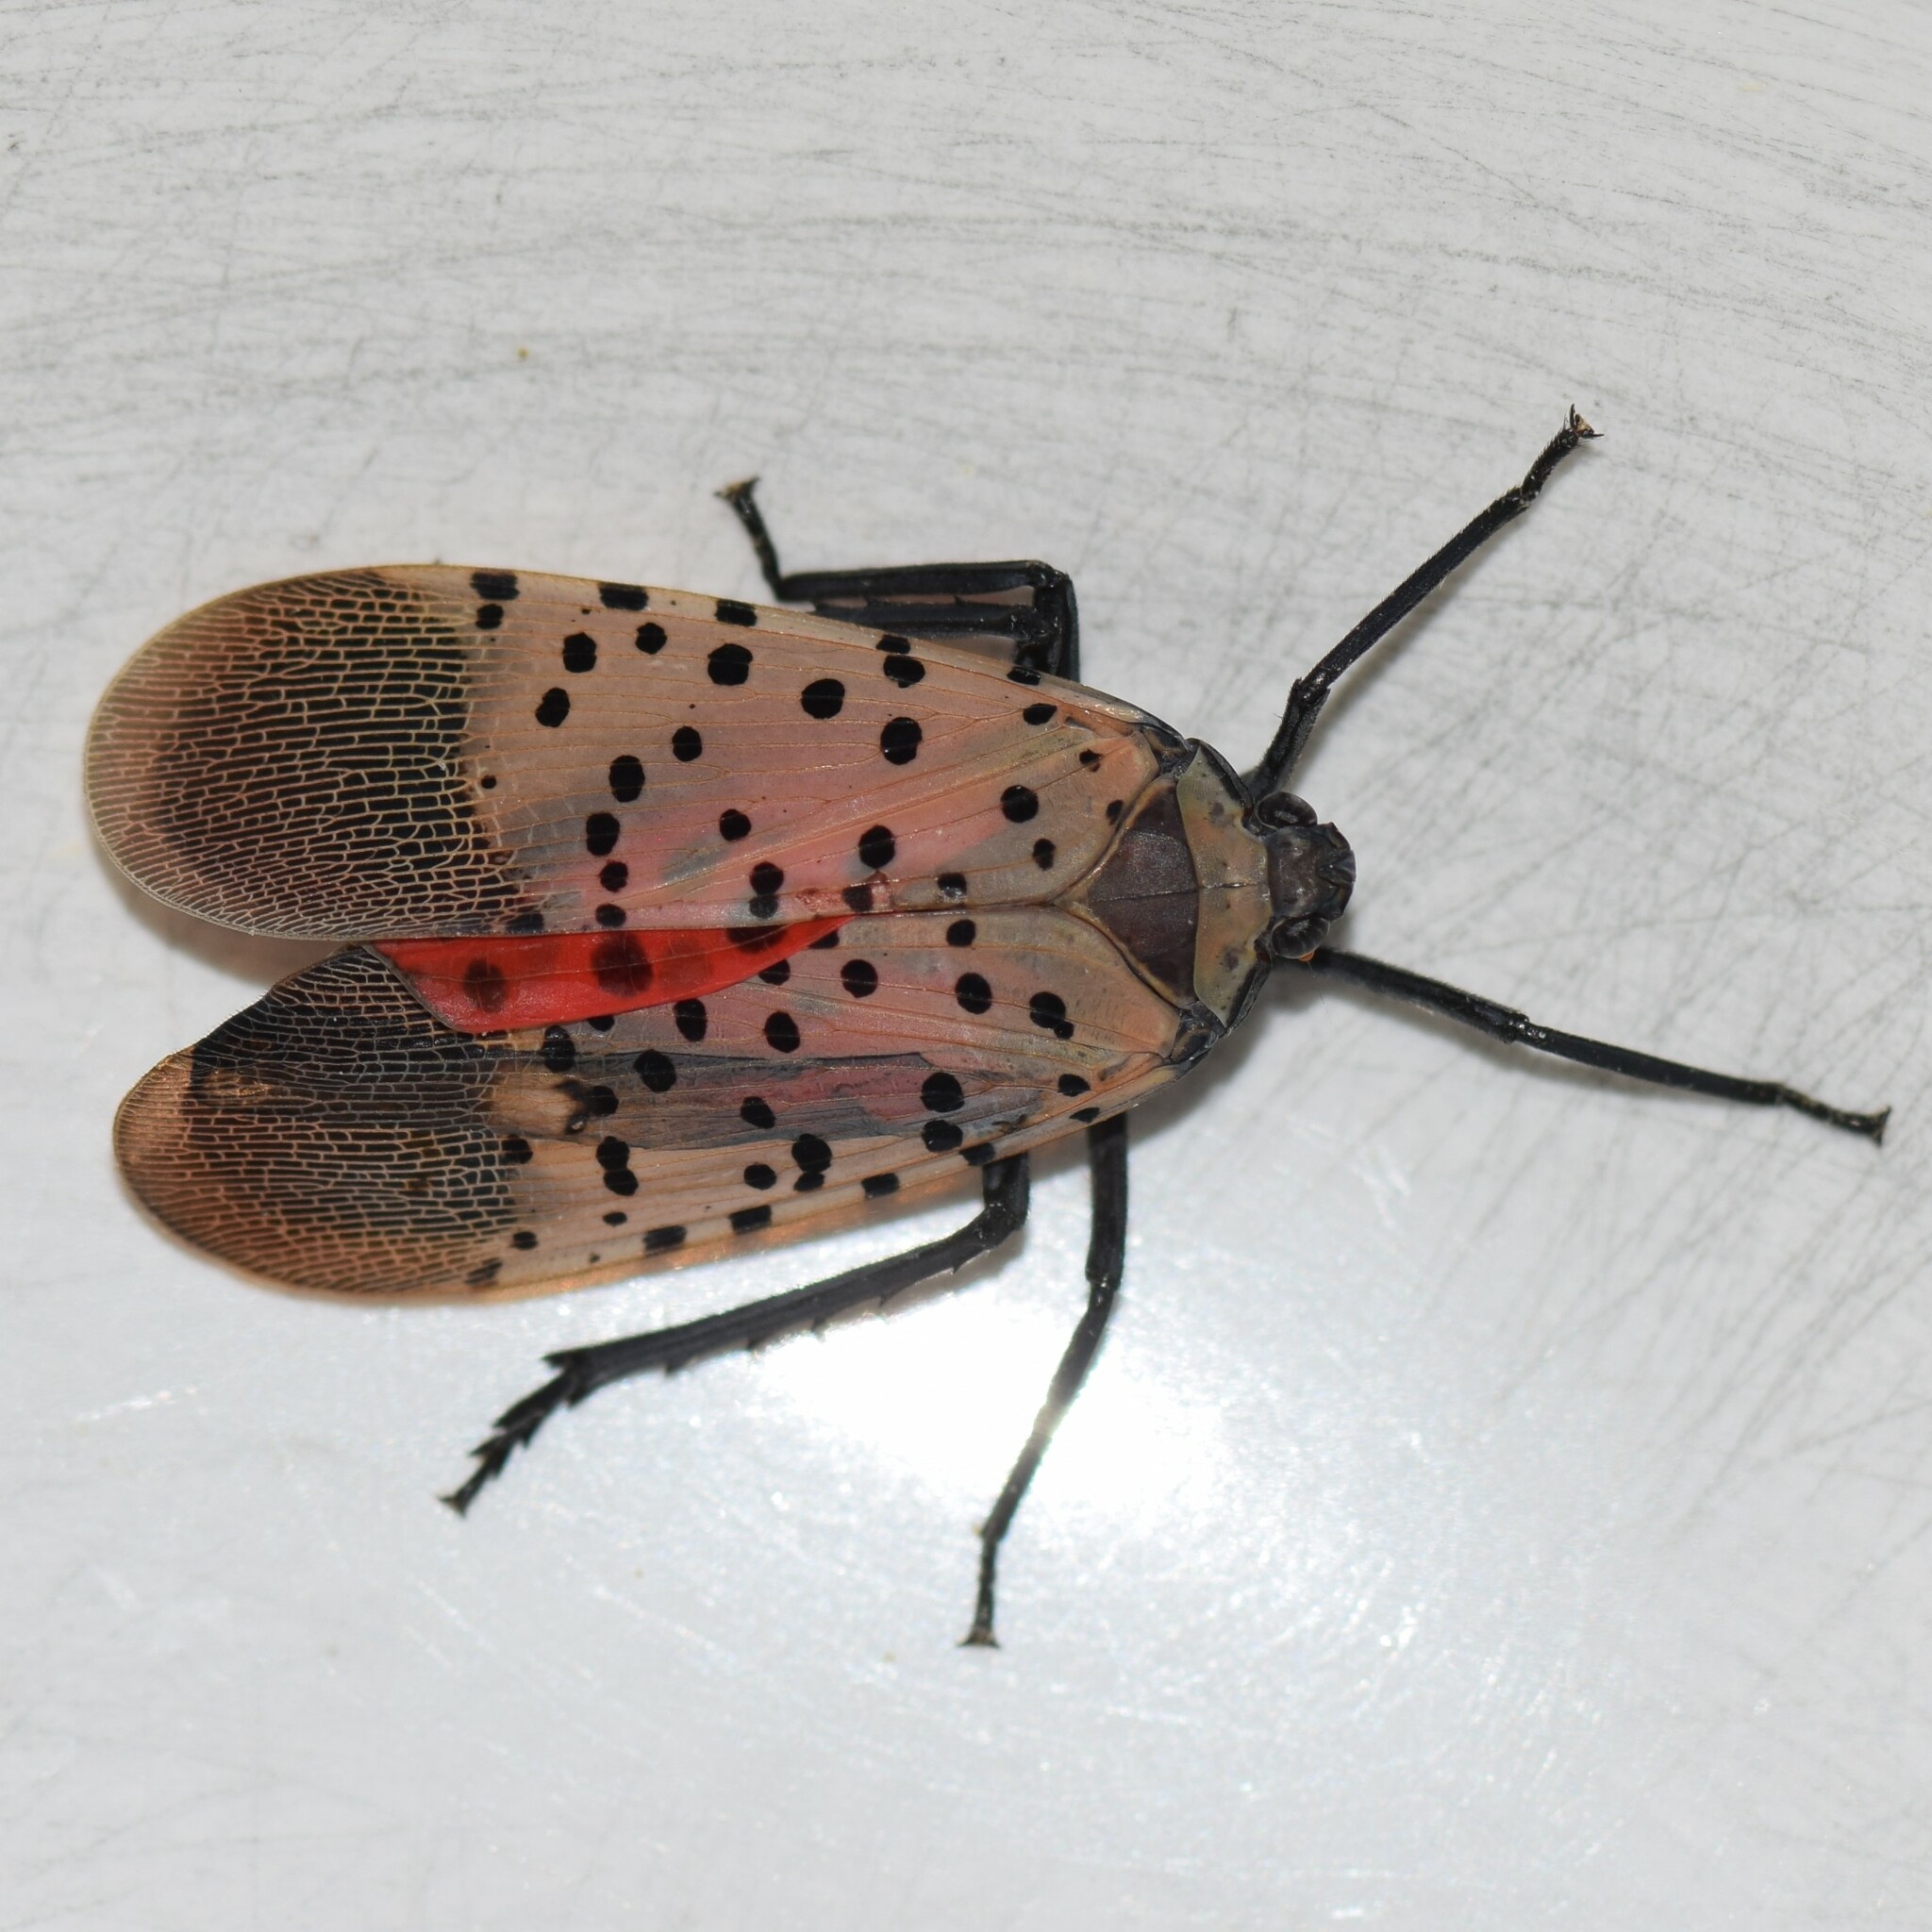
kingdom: Animalia
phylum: Arthropoda
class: Insecta
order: Hemiptera
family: Fulgoridae
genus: Lycorma
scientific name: Lycorma delicatula
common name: Spotted lanternfly
